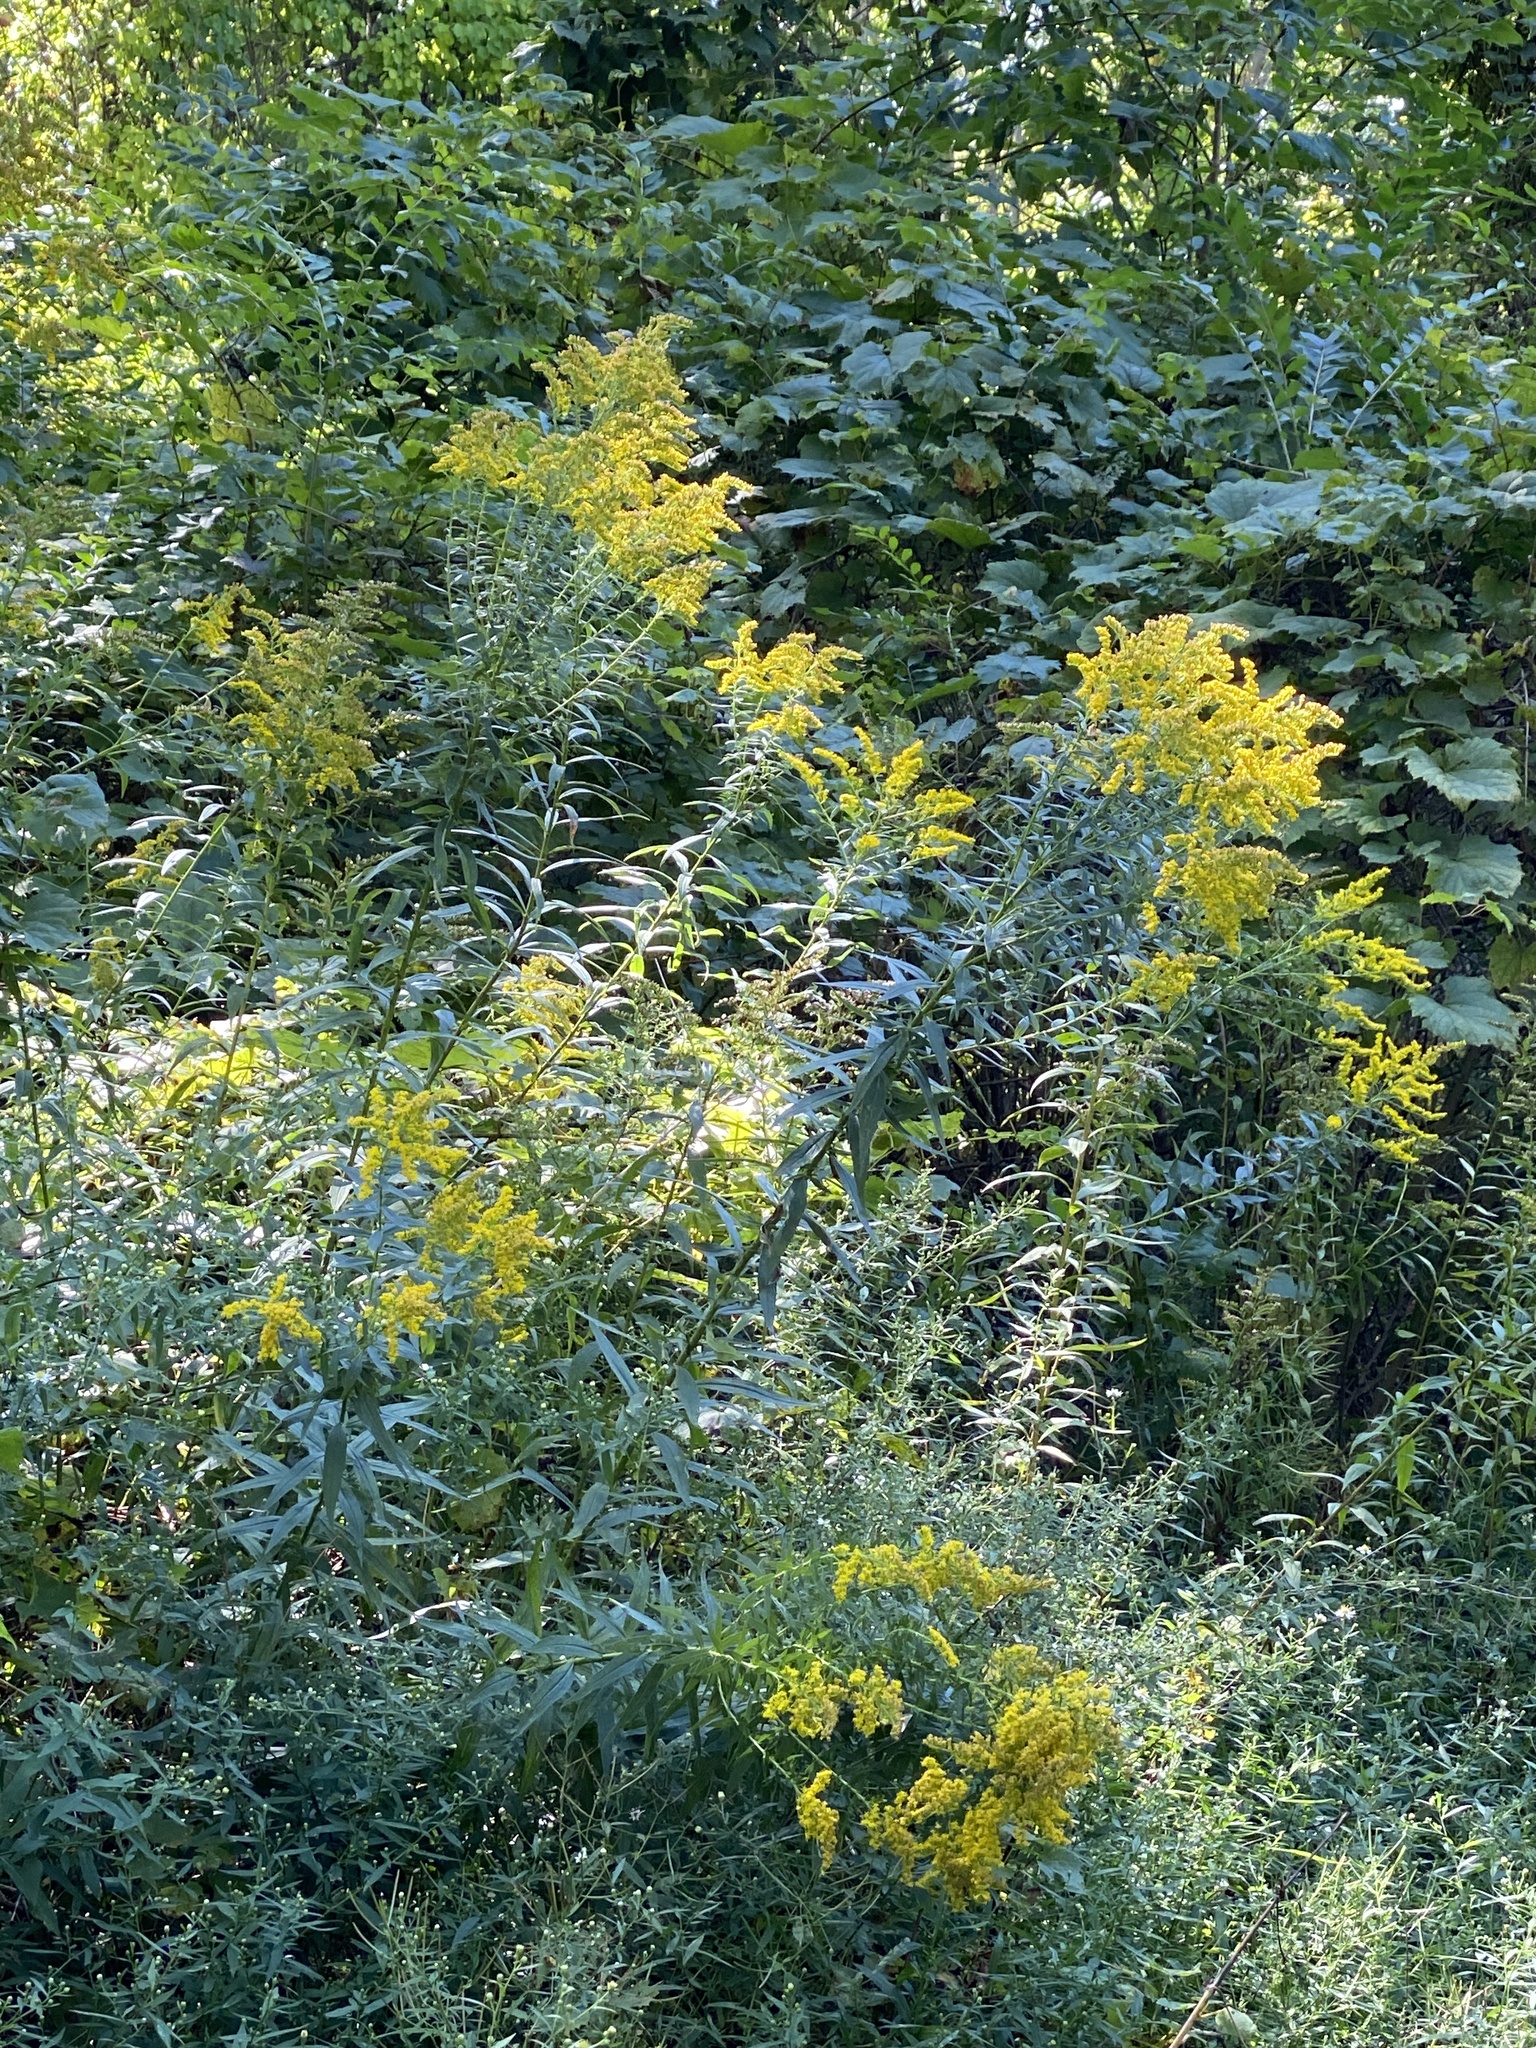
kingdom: Plantae
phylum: Tracheophyta
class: Magnoliopsida
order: Asterales
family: Asteraceae
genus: Solidago
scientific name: Solidago altissima
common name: Late goldenrod
